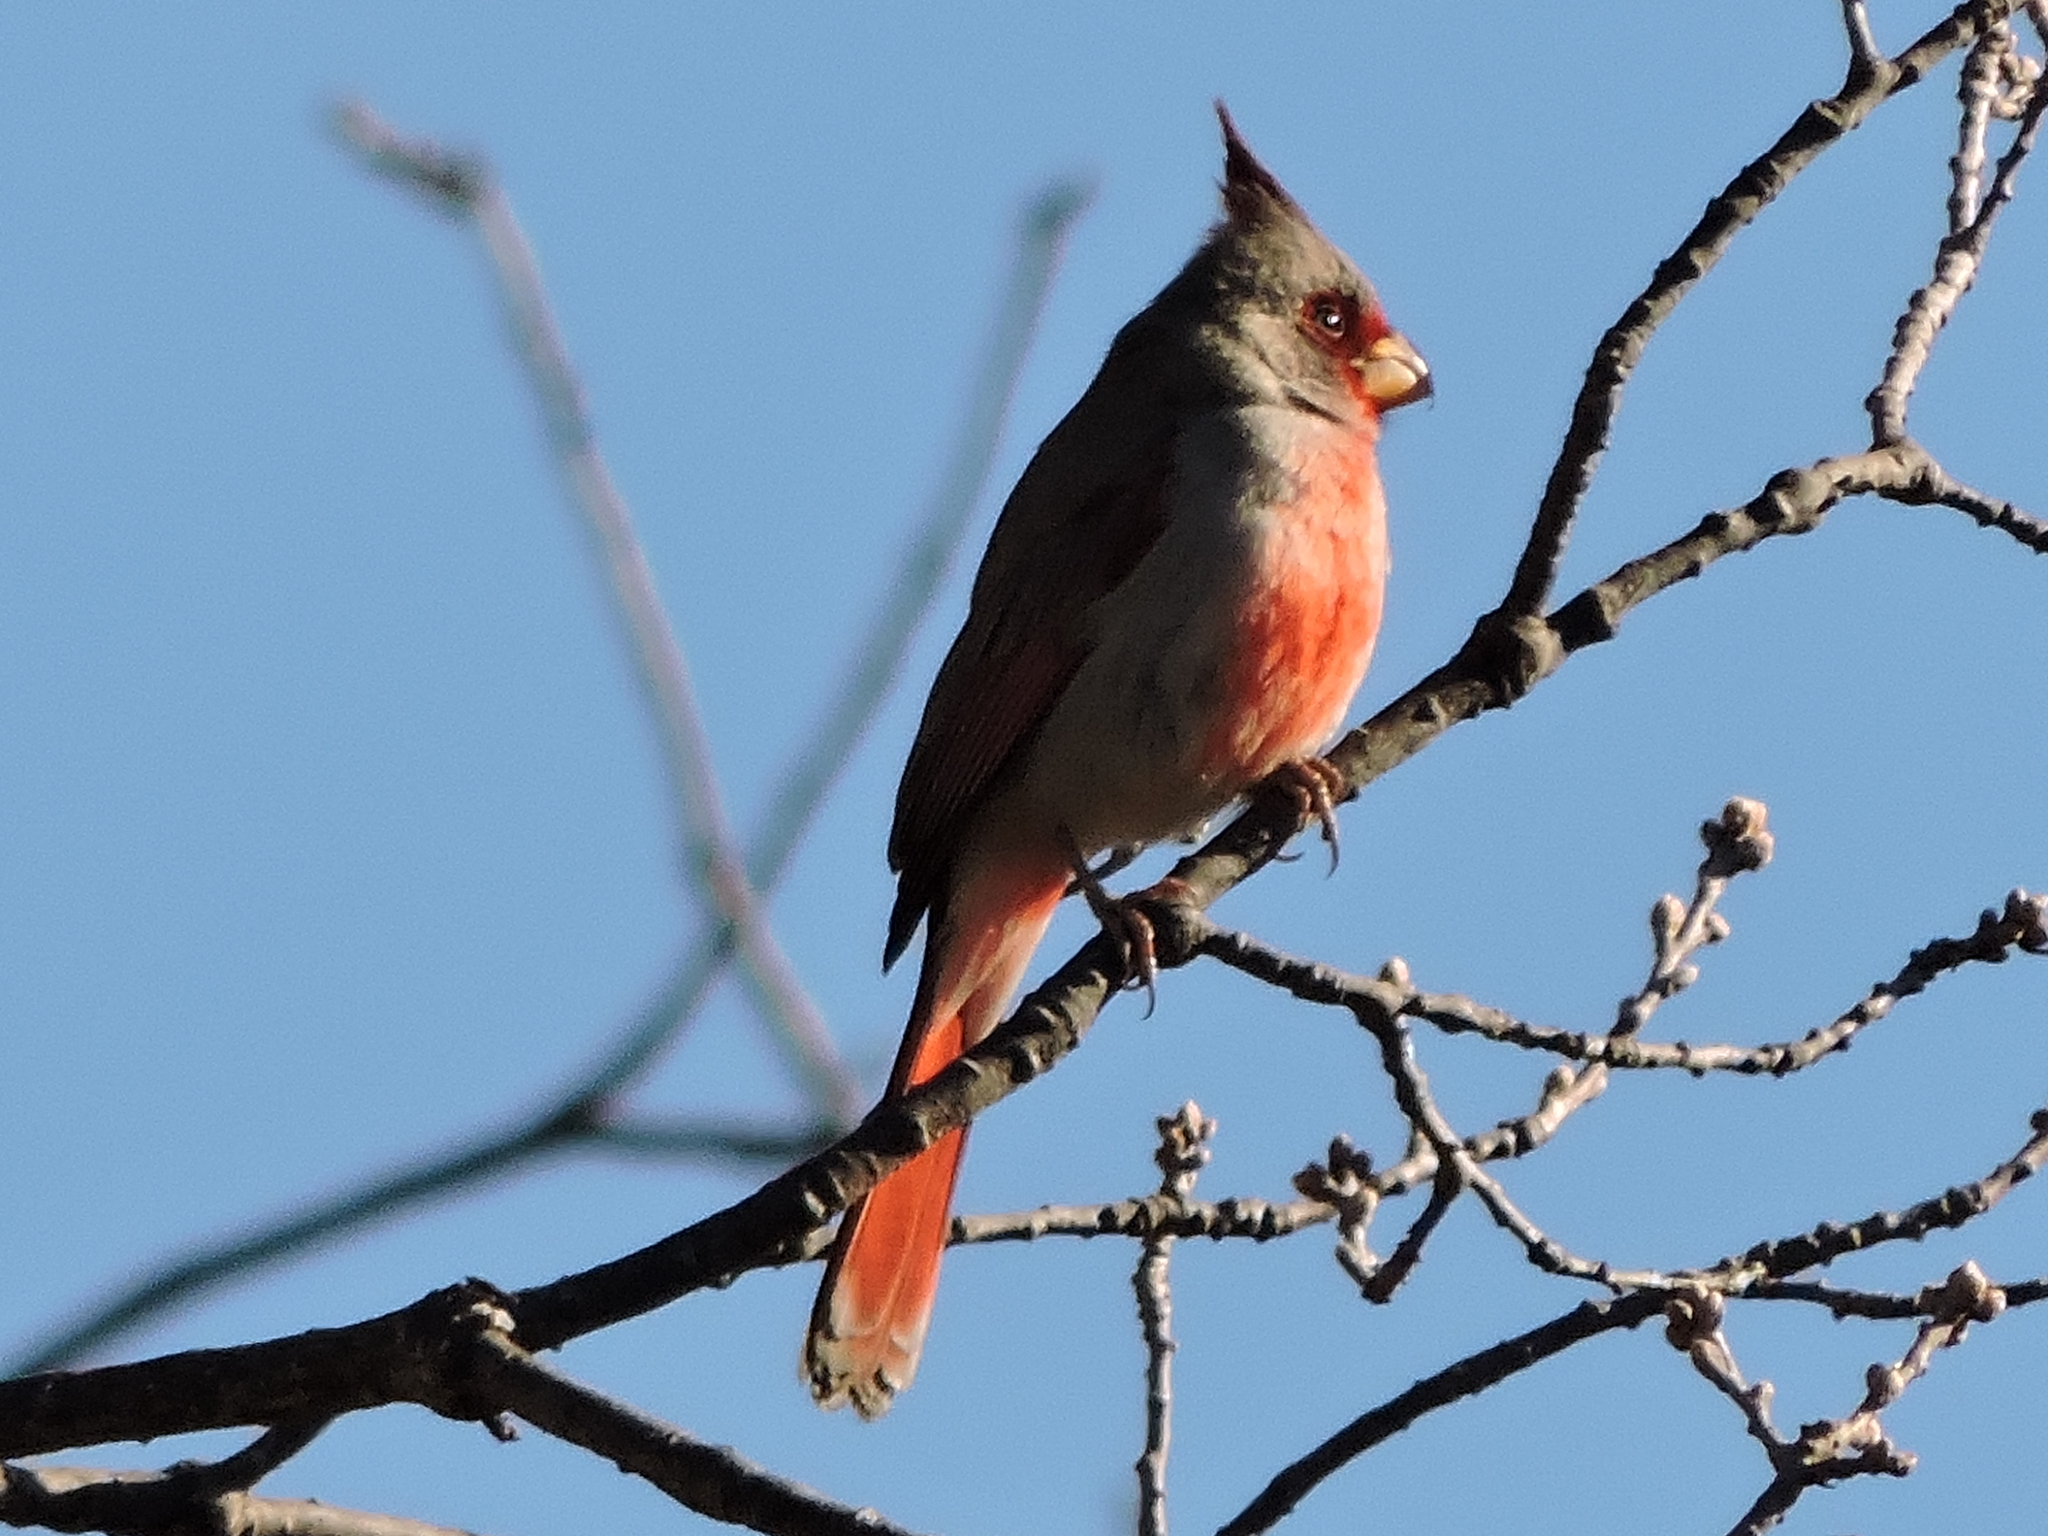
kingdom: Animalia
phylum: Chordata
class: Aves
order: Passeriformes
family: Cardinalidae
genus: Cardinalis
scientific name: Cardinalis sinuatus
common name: Pyrrhuloxia
